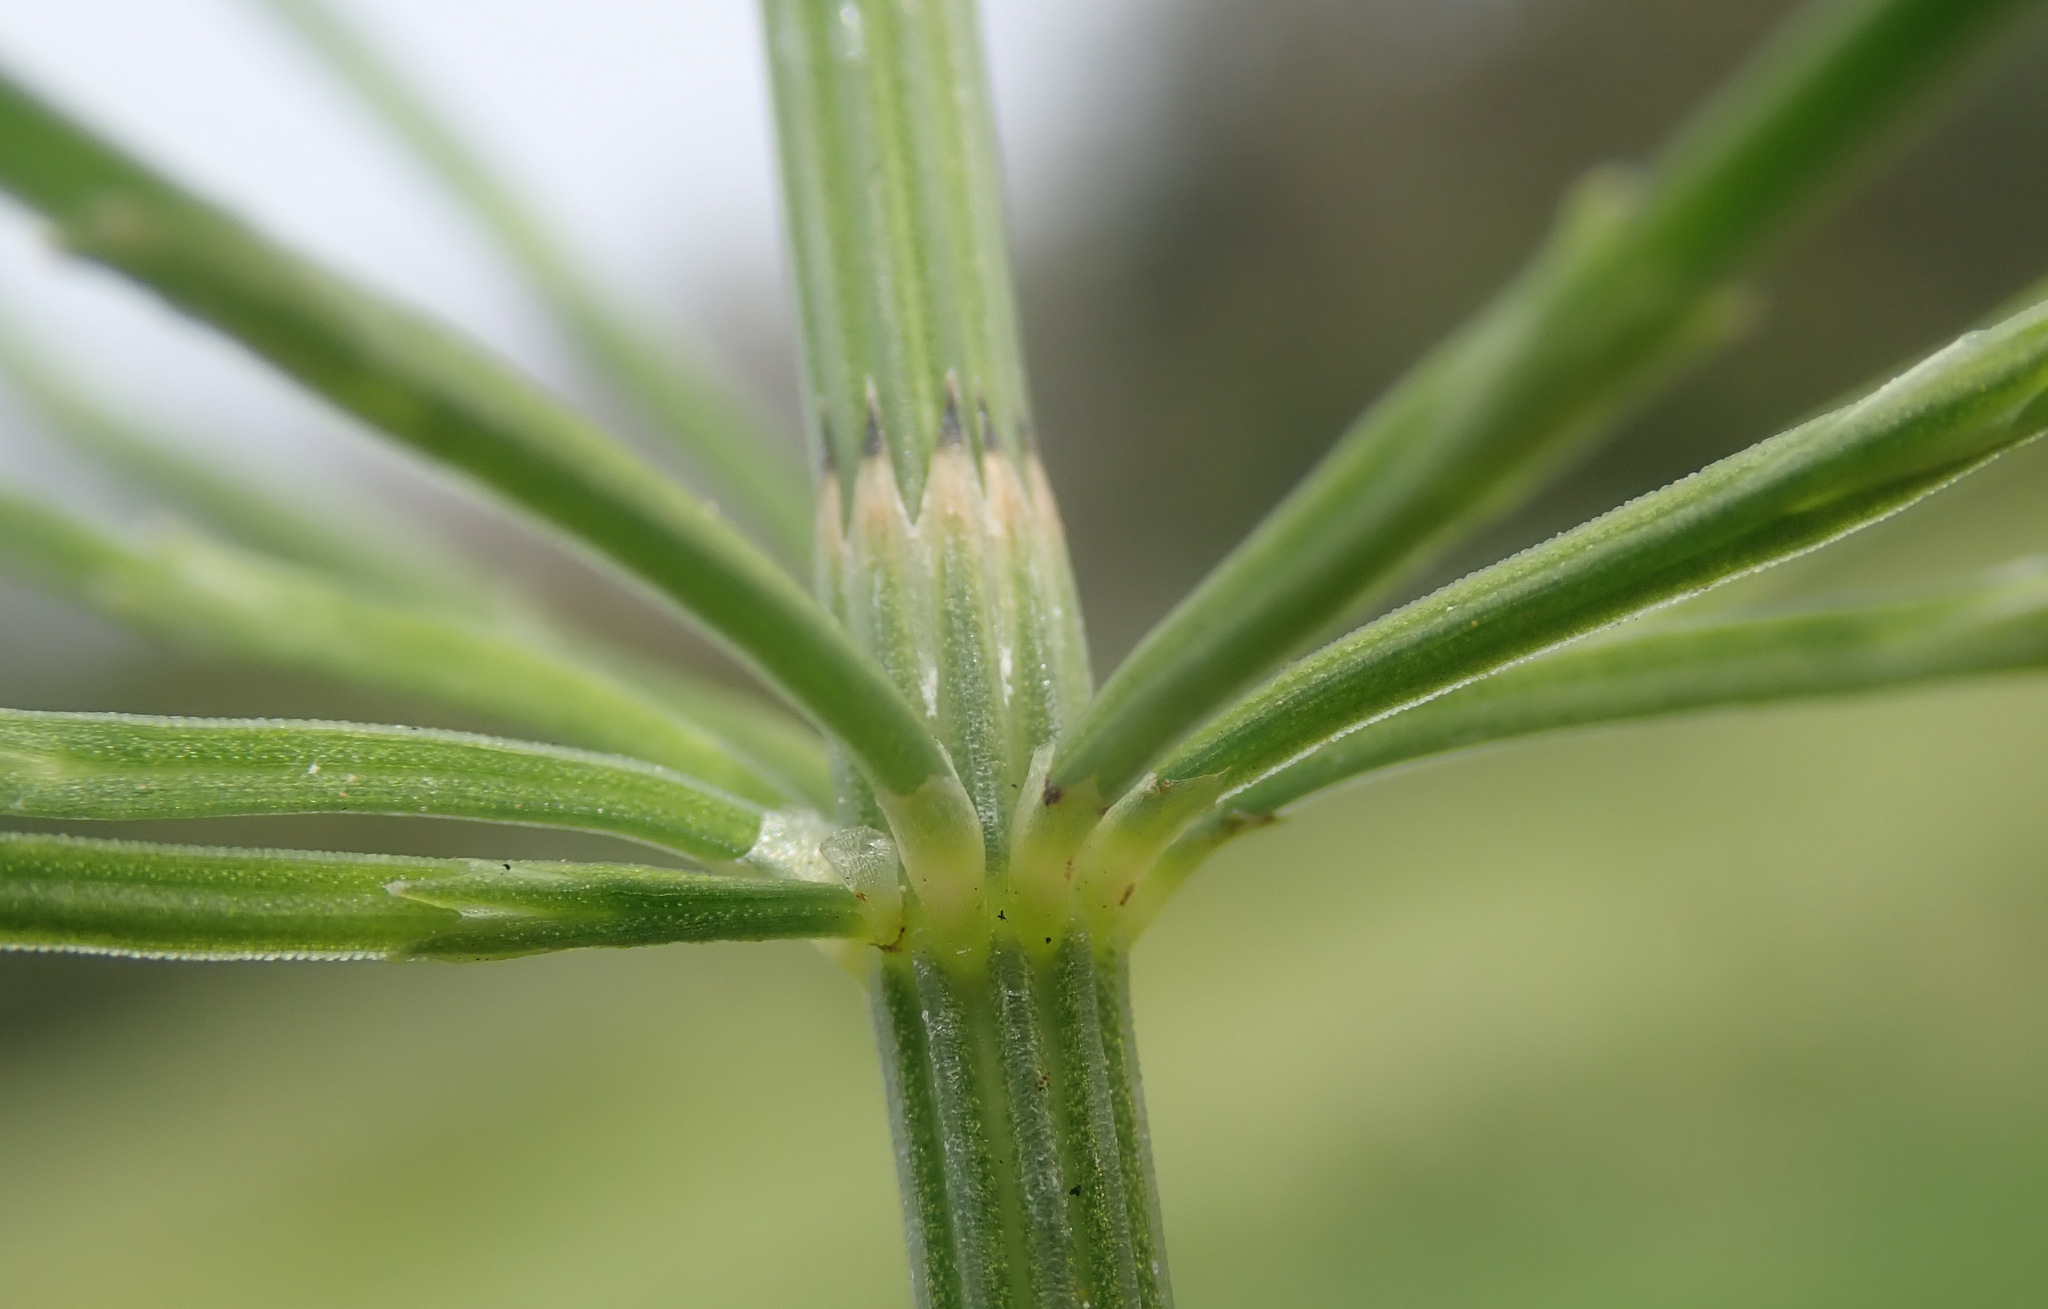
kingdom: Plantae
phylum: Tracheophyta
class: Polypodiopsida
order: Equisetales
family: Equisetaceae
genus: Equisetum
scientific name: Equisetum arvense
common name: Field horsetail
